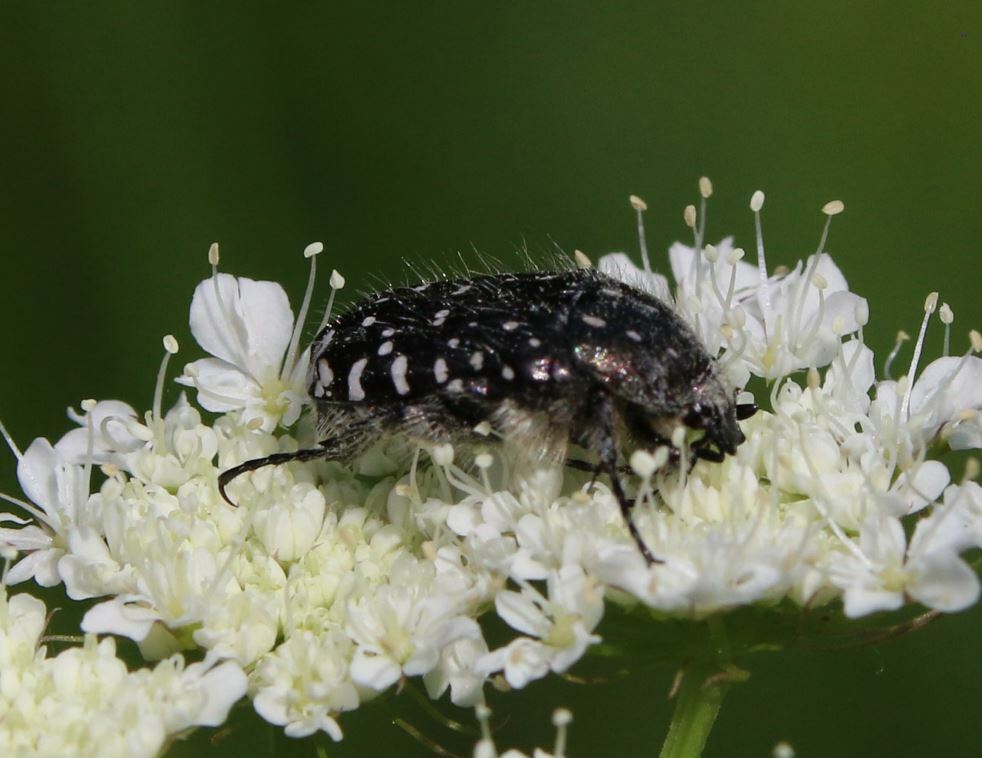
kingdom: Animalia
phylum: Arthropoda
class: Insecta
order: Coleoptera
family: Scarabaeidae
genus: Oxythyrea
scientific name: Oxythyrea funesta
